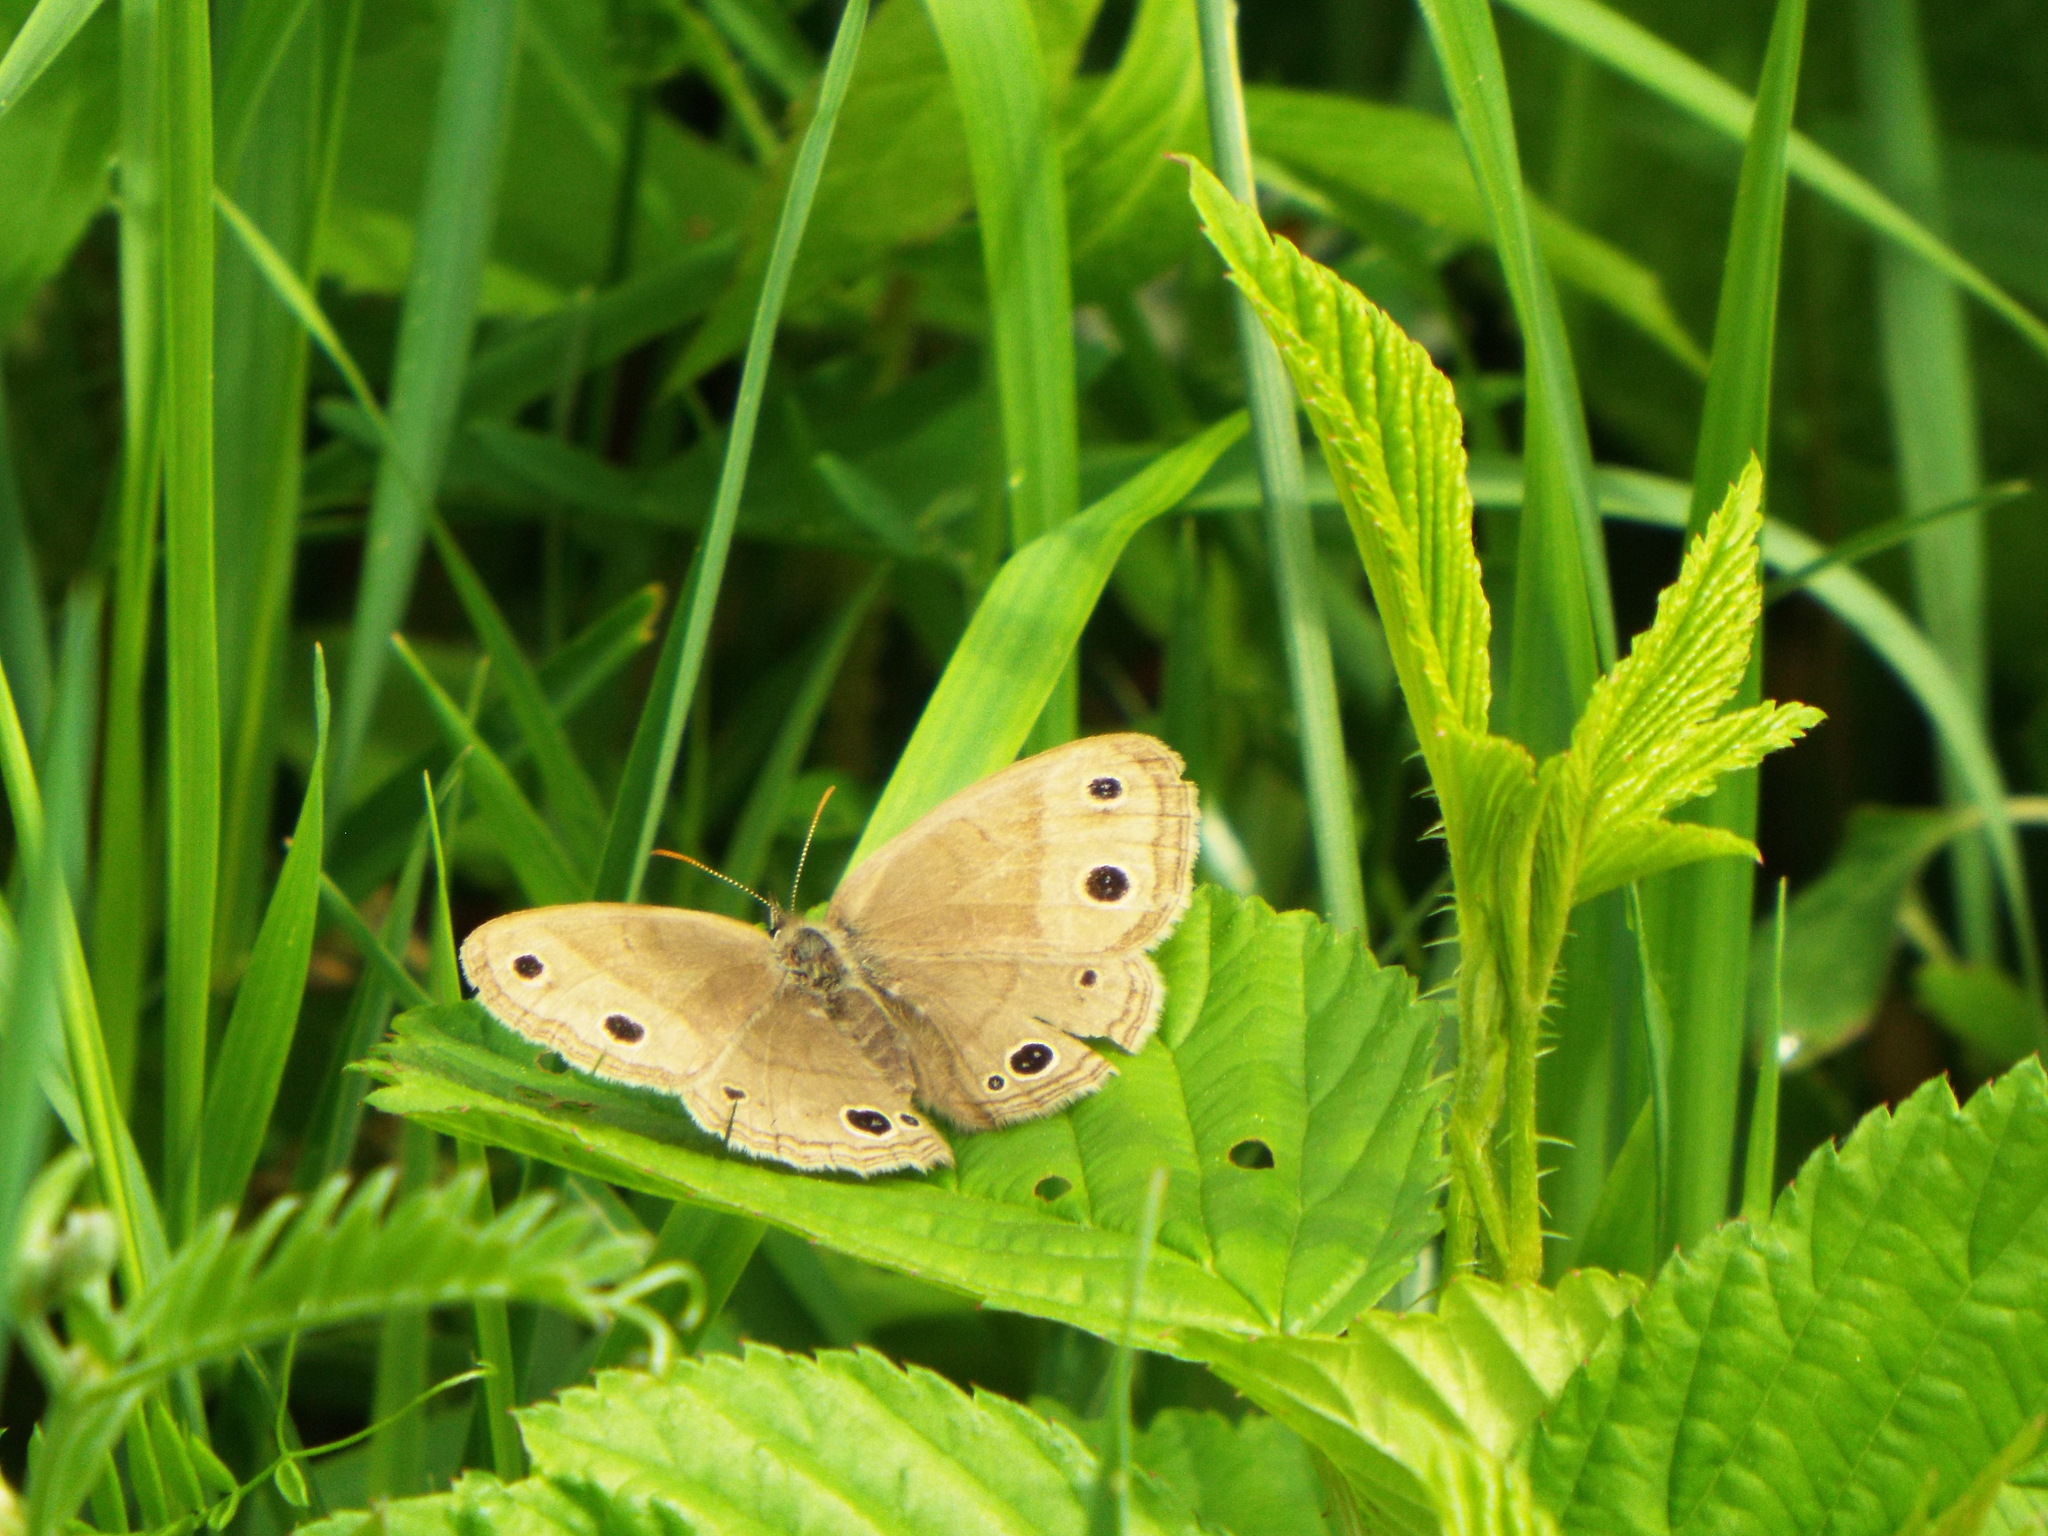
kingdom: Animalia
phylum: Arthropoda
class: Insecta
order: Lepidoptera
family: Nymphalidae
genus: Euptychia
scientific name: Euptychia cymela
